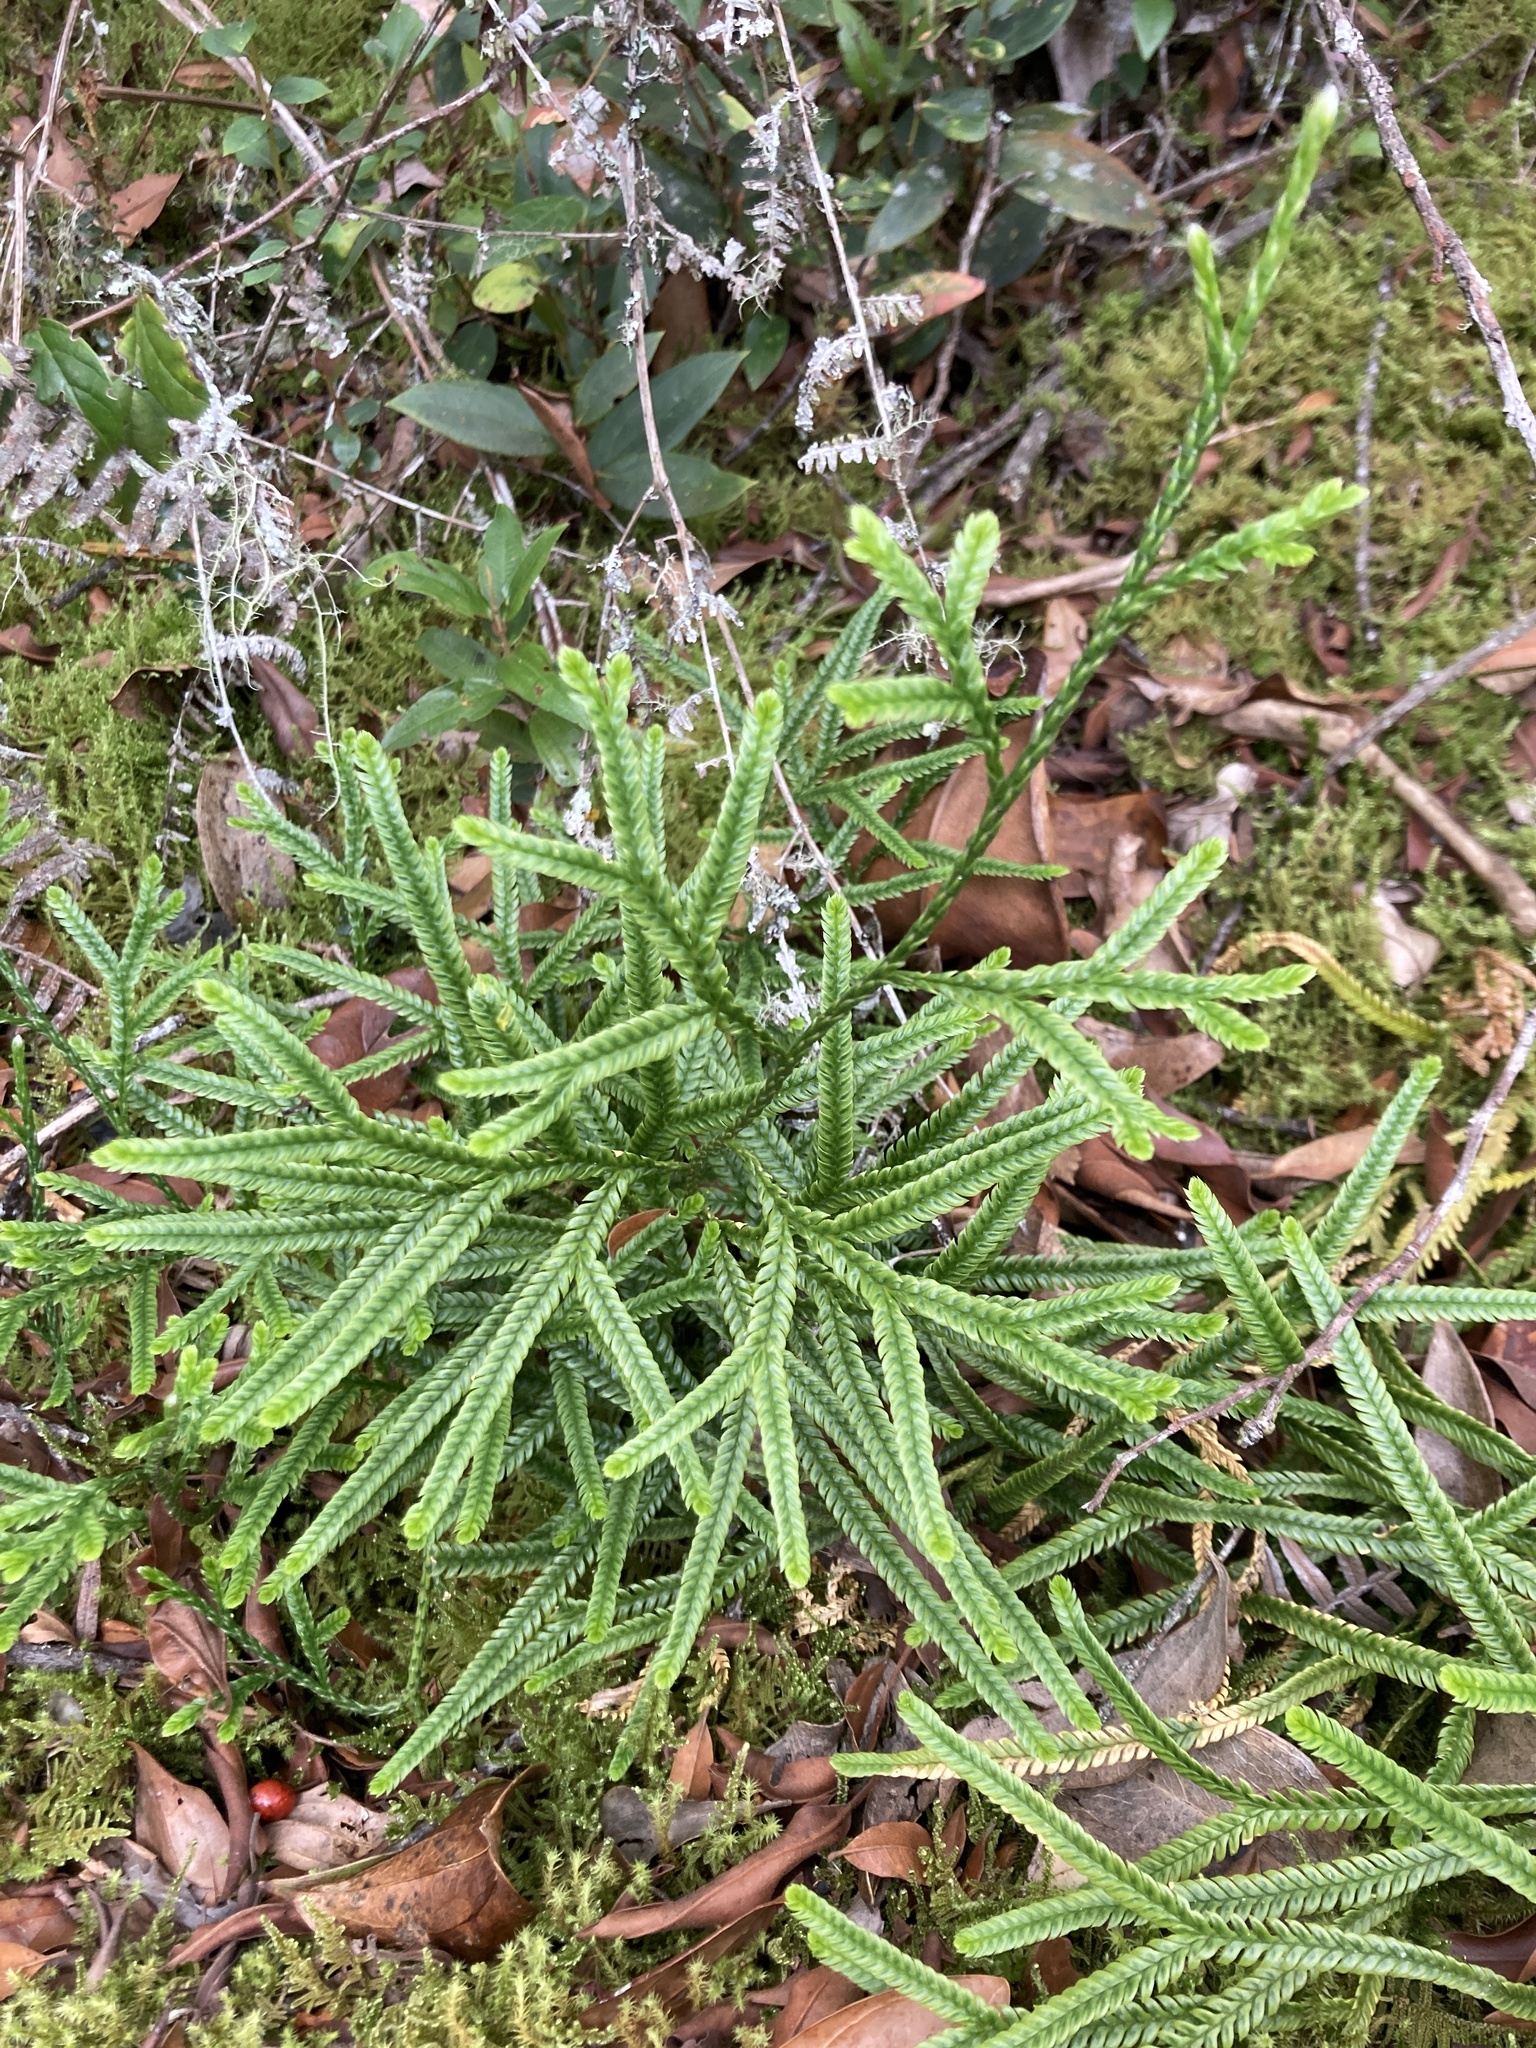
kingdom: Plantae
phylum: Tracheophyta
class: Lycopodiopsida
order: Lycopodiales
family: Lycopodiaceae
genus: Diphasium
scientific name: Diphasium jussiaei
